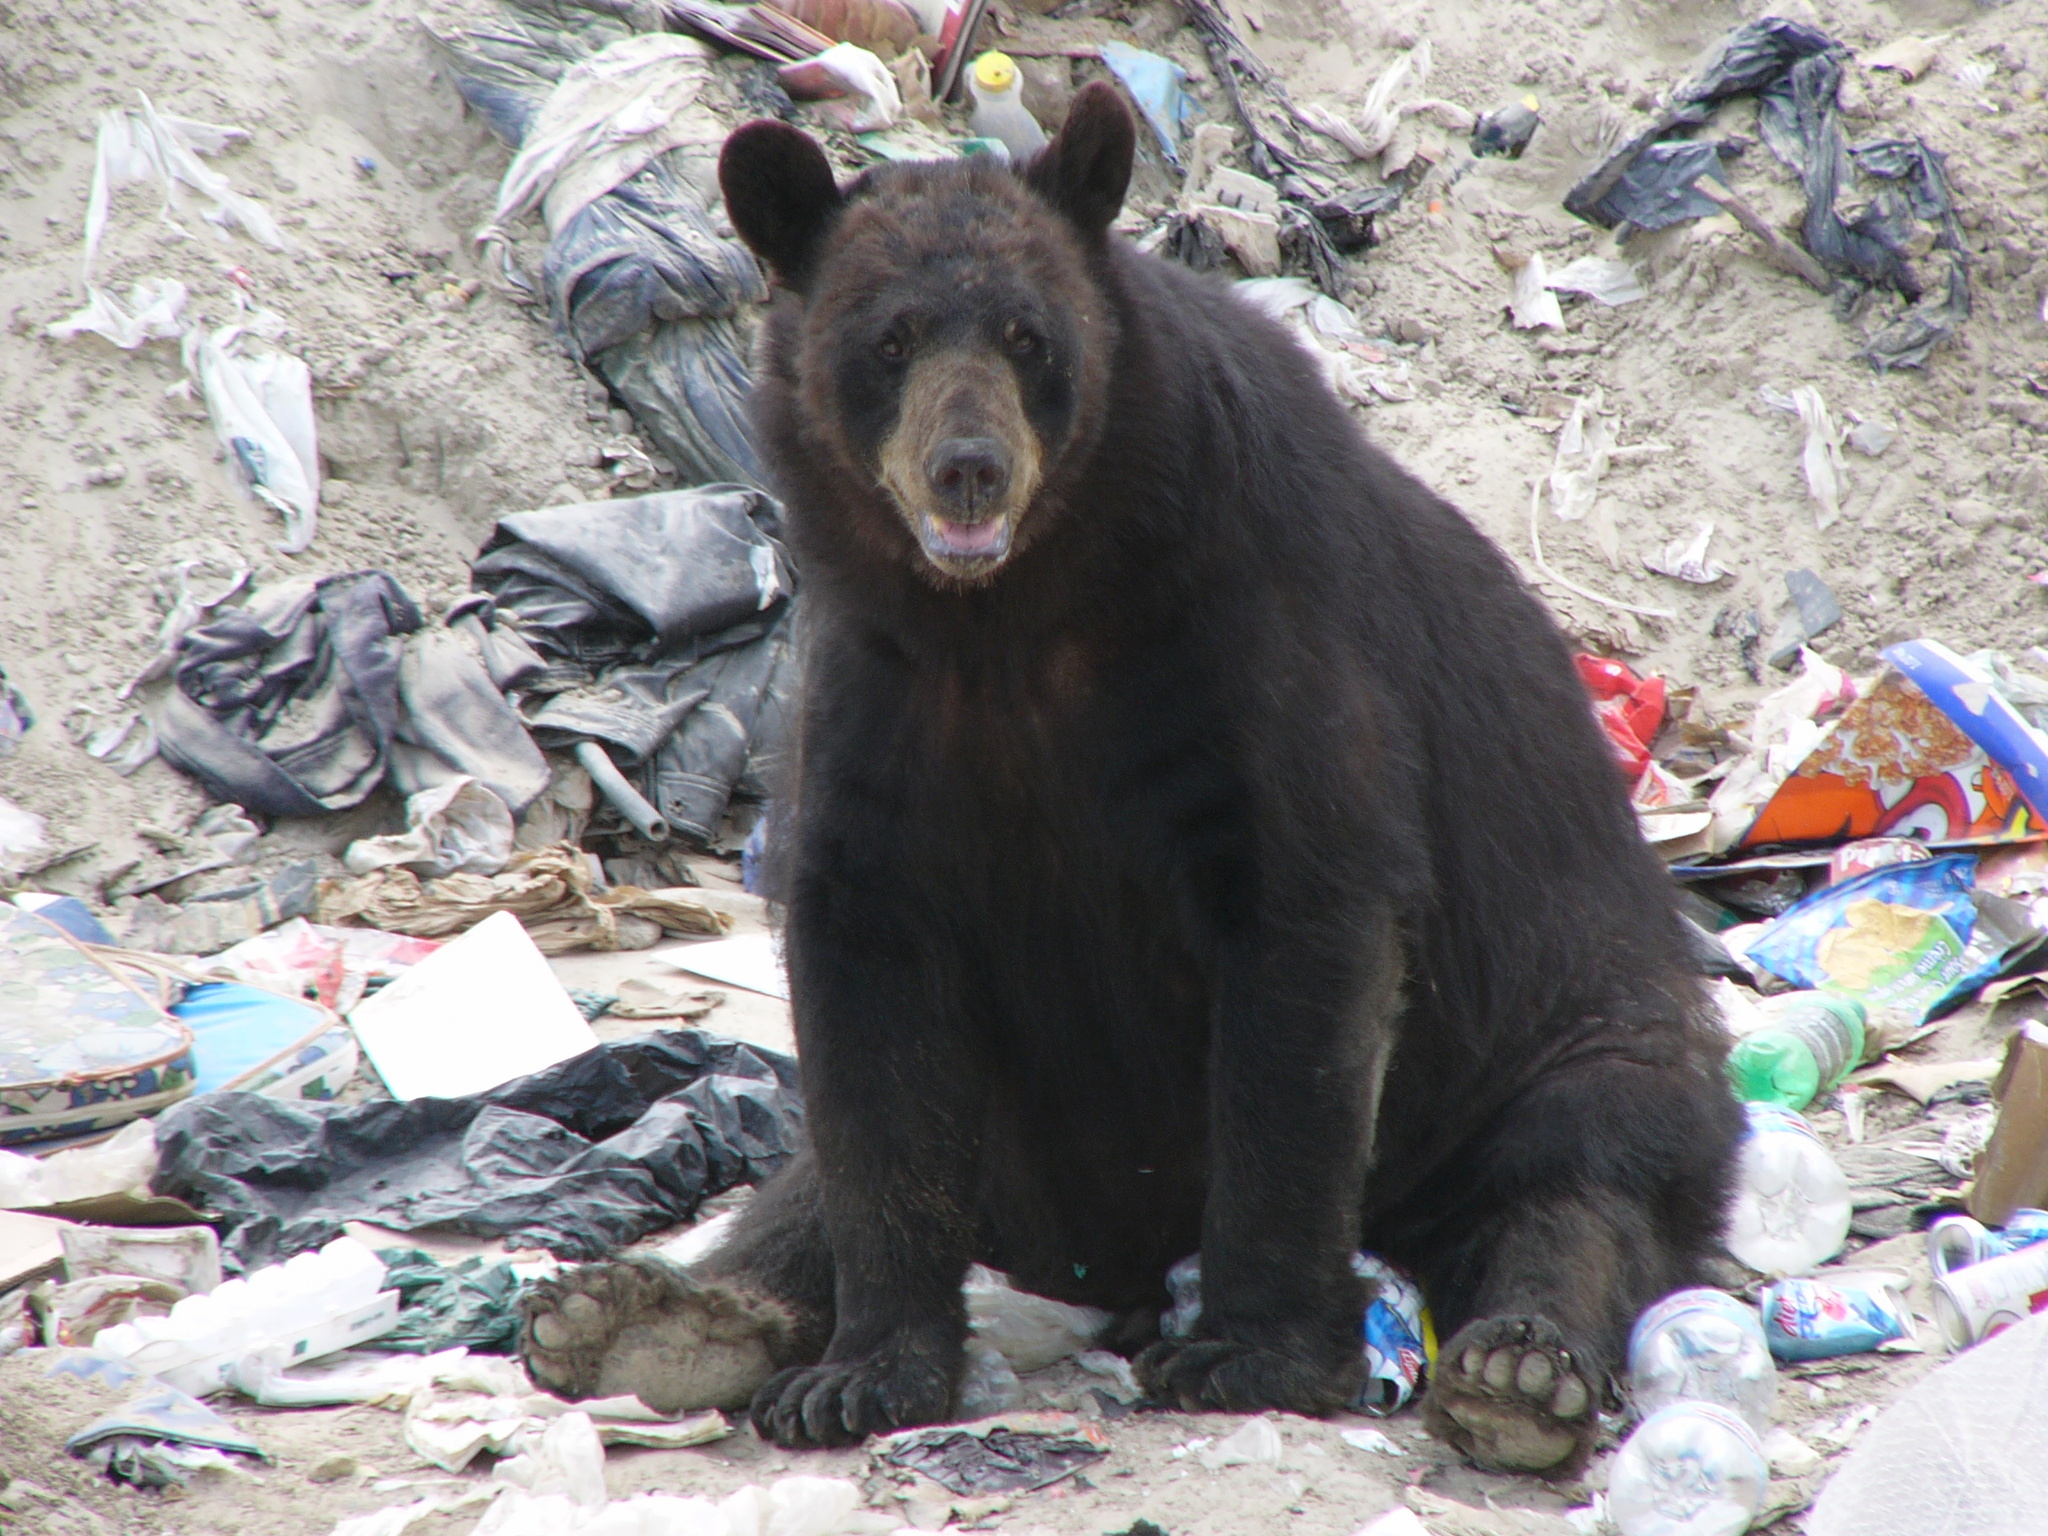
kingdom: Animalia
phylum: Chordata
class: Mammalia
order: Carnivora
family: Ursidae
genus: Ursus
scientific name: Ursus americanus
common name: American black bear
